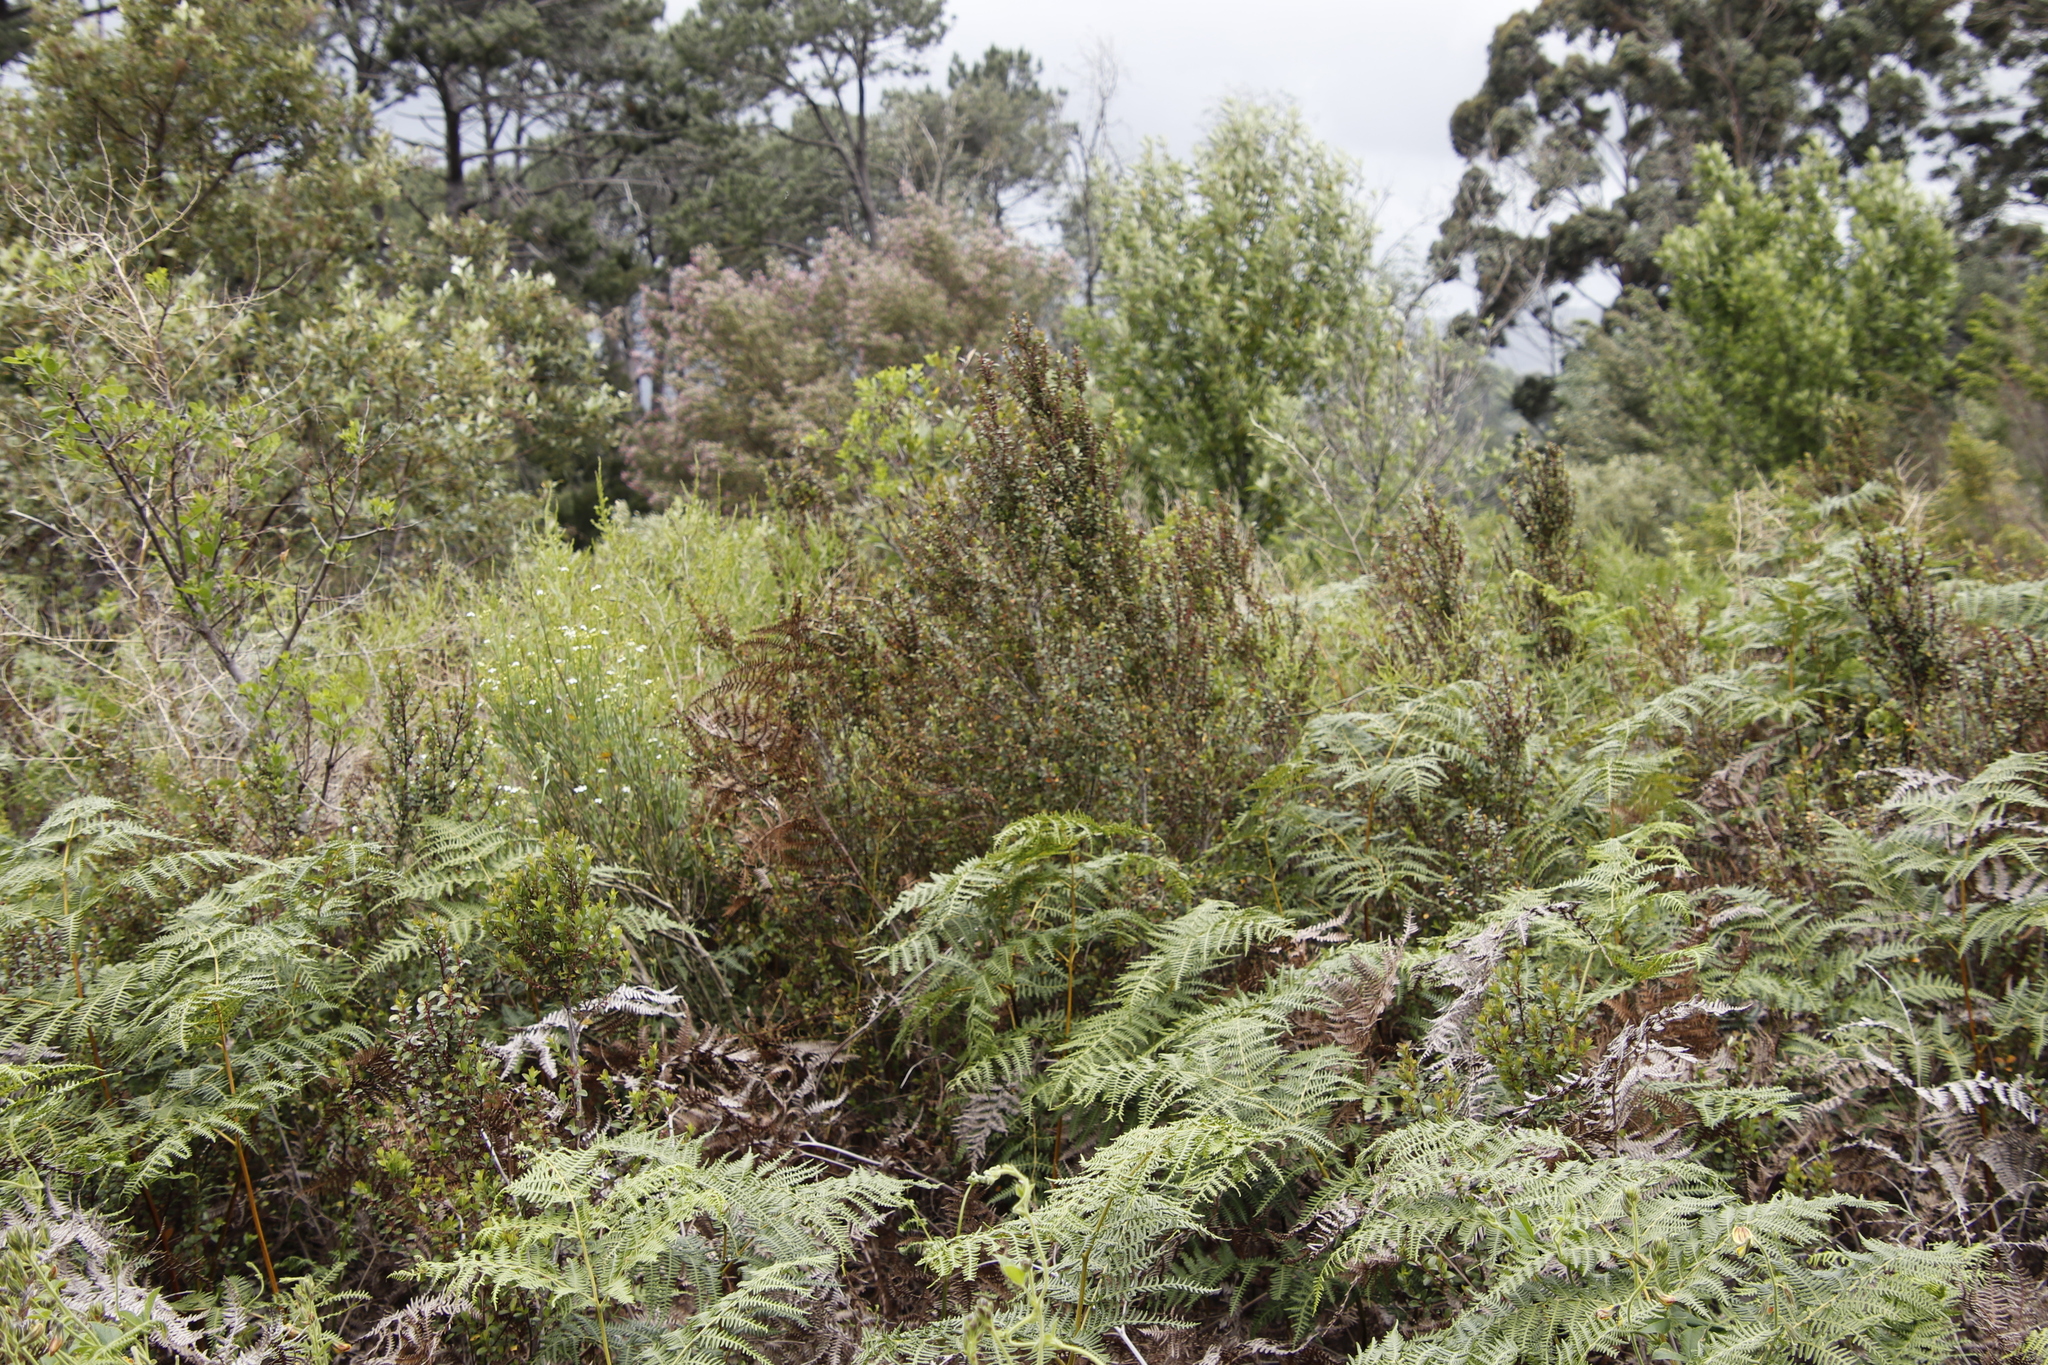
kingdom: Plantae
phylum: Tracheophyta
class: Magnoliopsida
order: Ericales
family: Primulaceae
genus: Myrsine
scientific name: Myrsine africana
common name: African-boxwood
